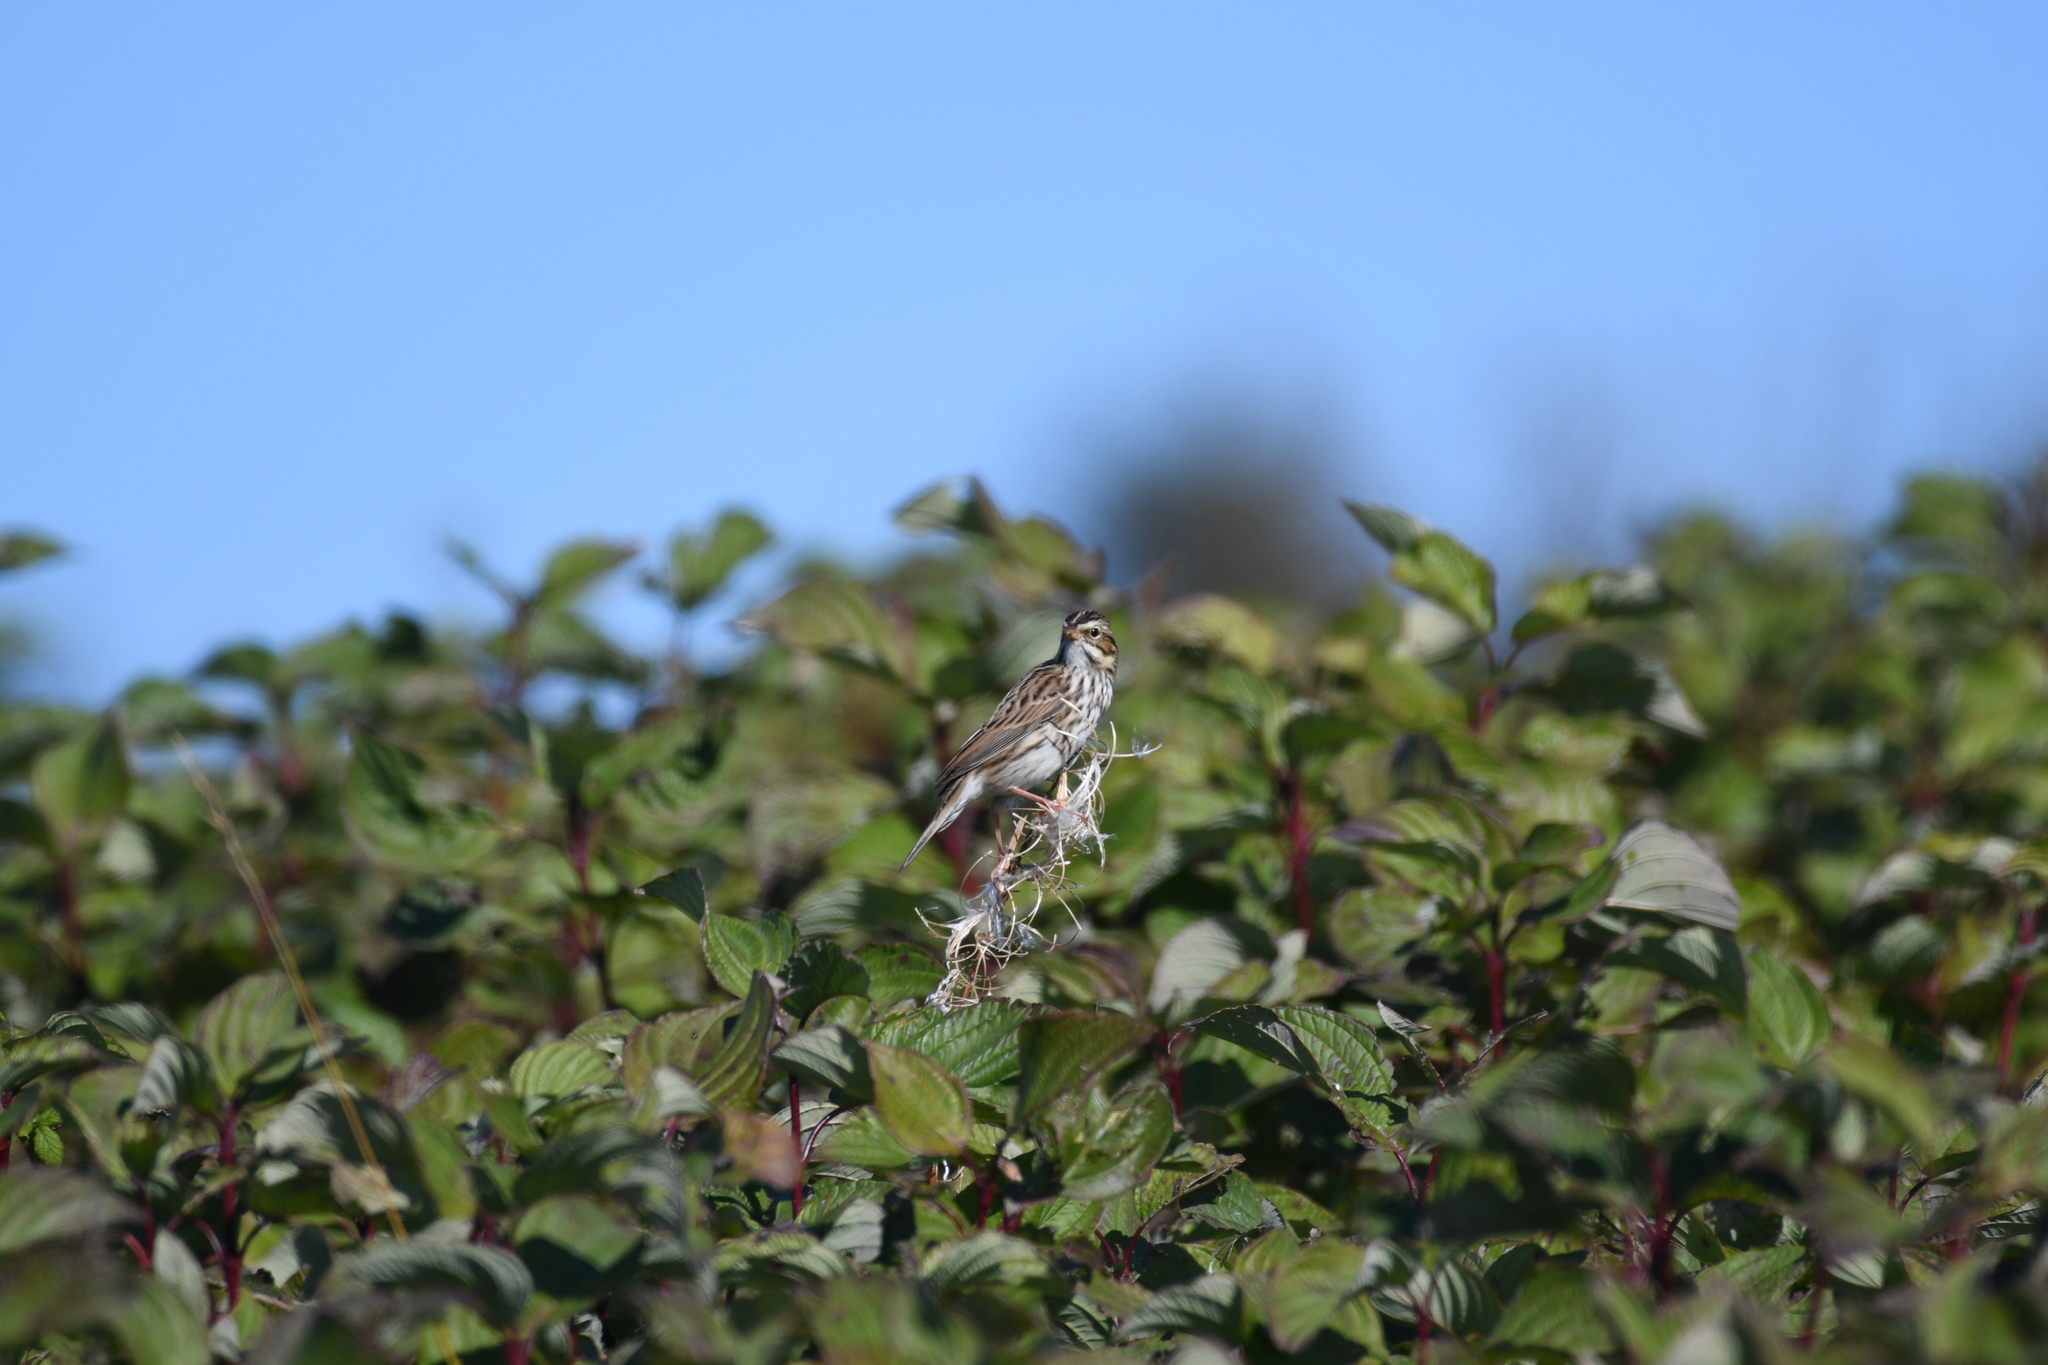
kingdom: Animalia
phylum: Chordata
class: Aves
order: Passeriformes
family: Passerellidae
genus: Passerculus
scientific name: Passerculus sandwichensis
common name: Savannah sparrow
